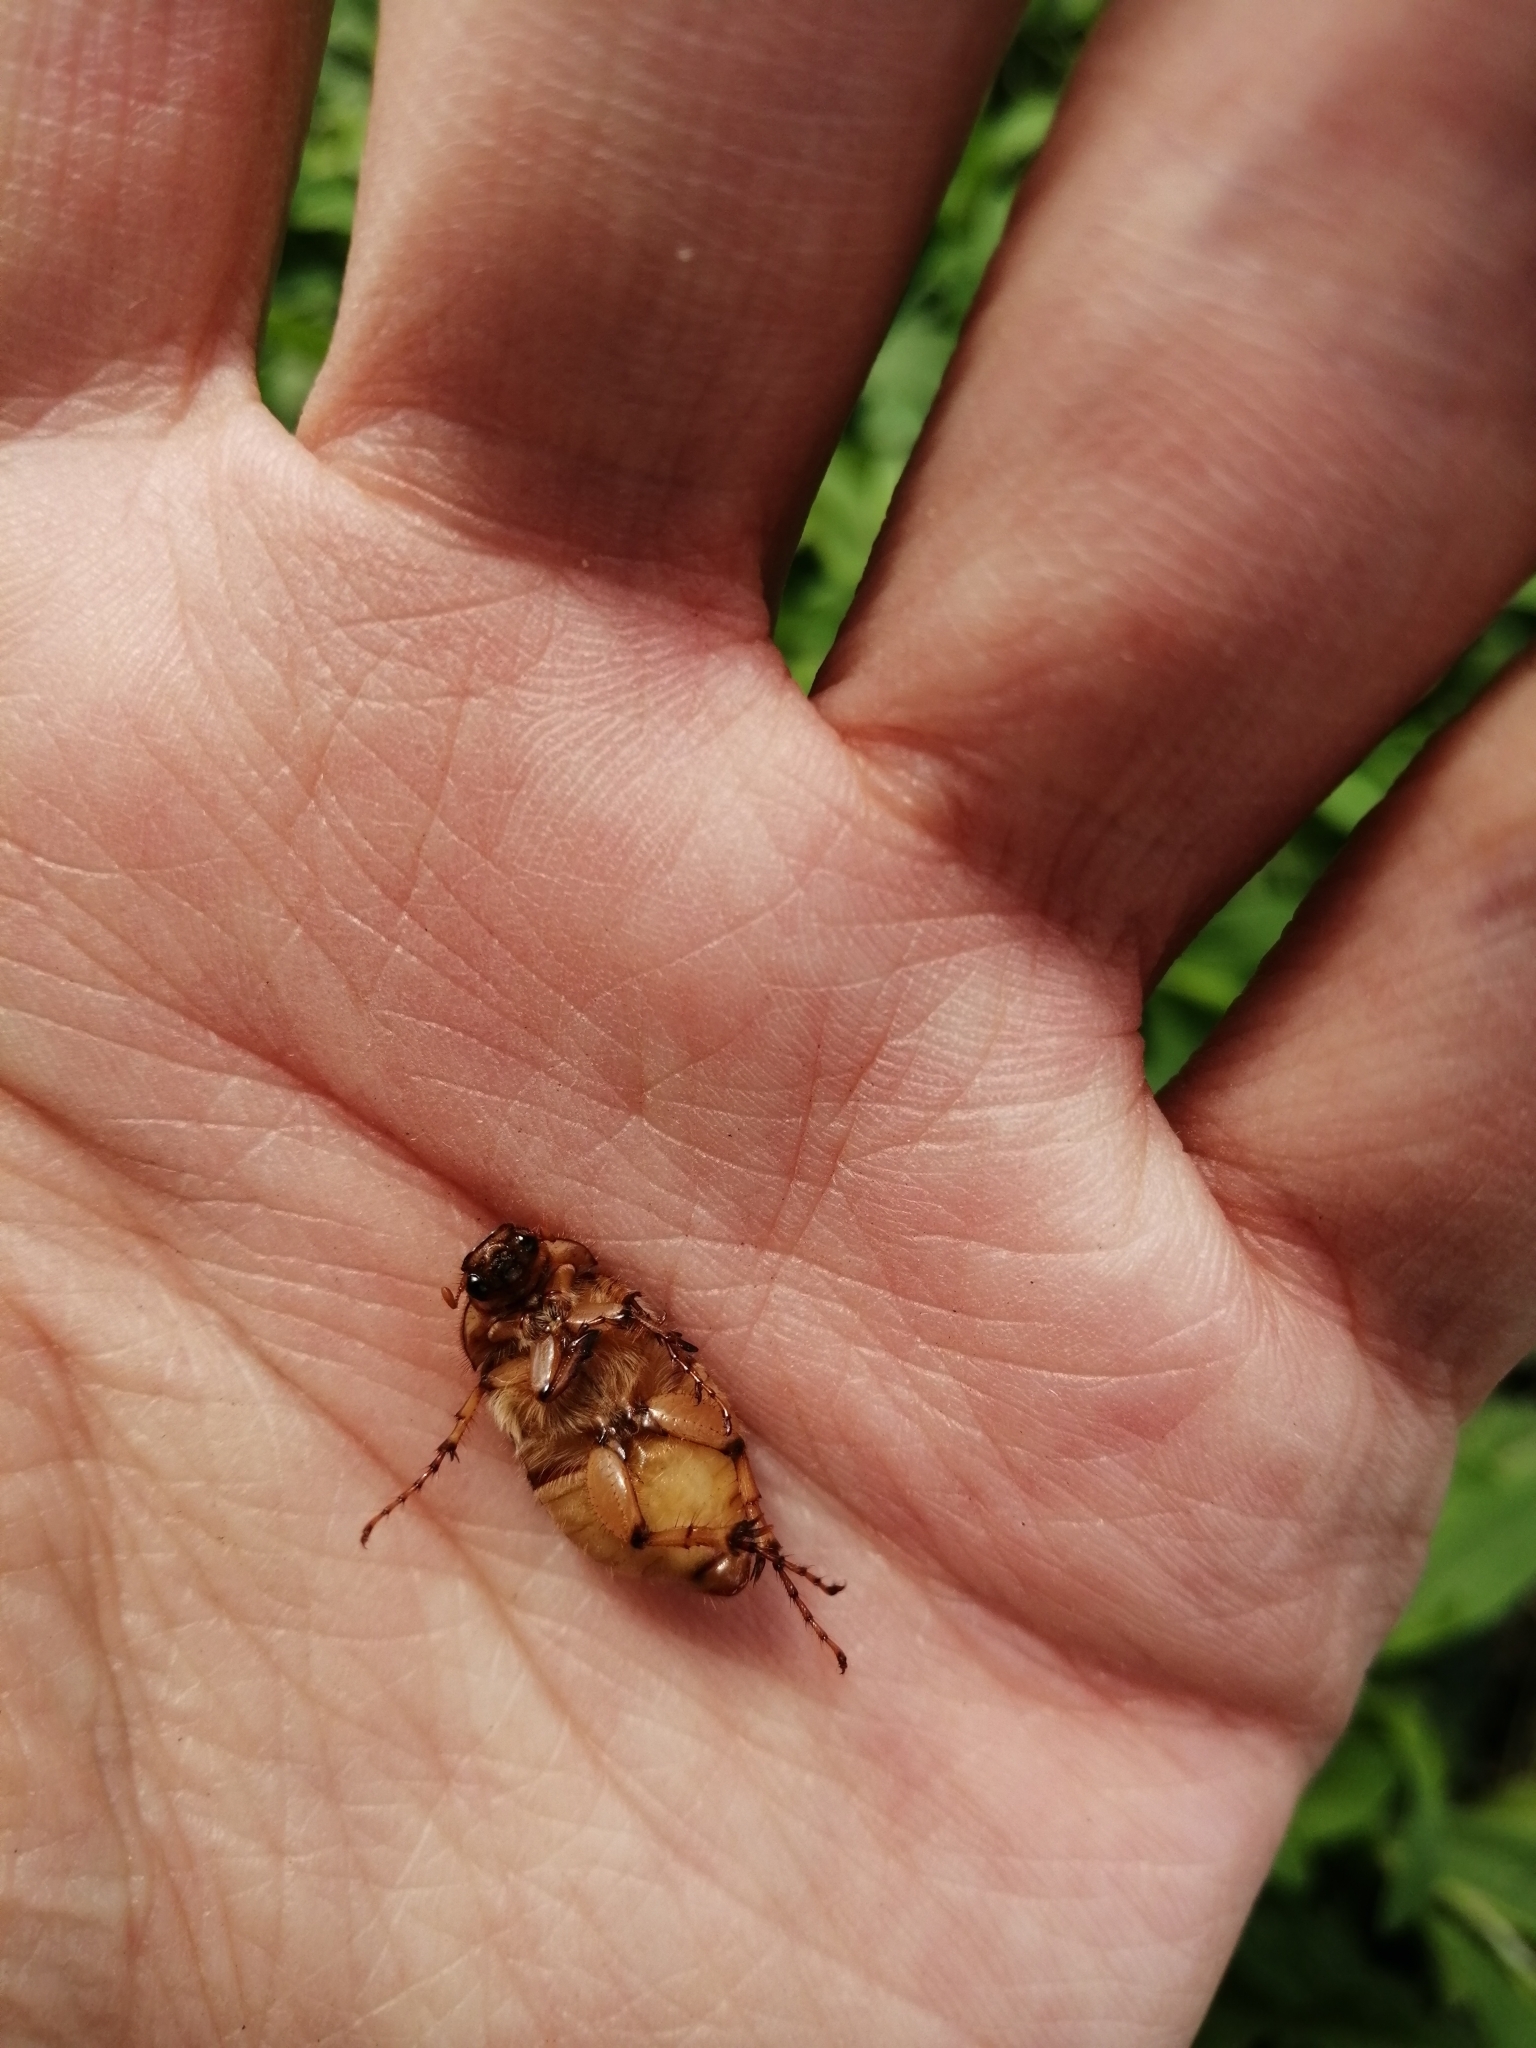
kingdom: Animalia
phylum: Arthropoda
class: Insecta
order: Coleoptera
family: Scarabaeidae
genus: Rhizotrogus
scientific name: Rhizotrogus aestivus
